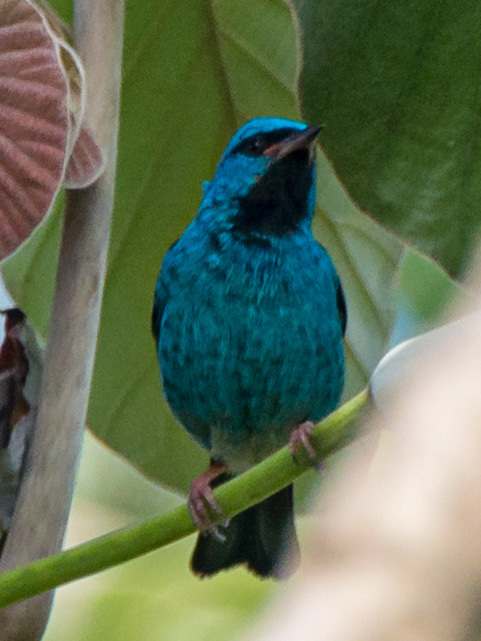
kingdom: Animalia
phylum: Chordata
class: Aves
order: Passeriformes
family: Thraupidae
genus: Dacnis
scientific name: Dacnis cayana
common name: Blue dacnis
